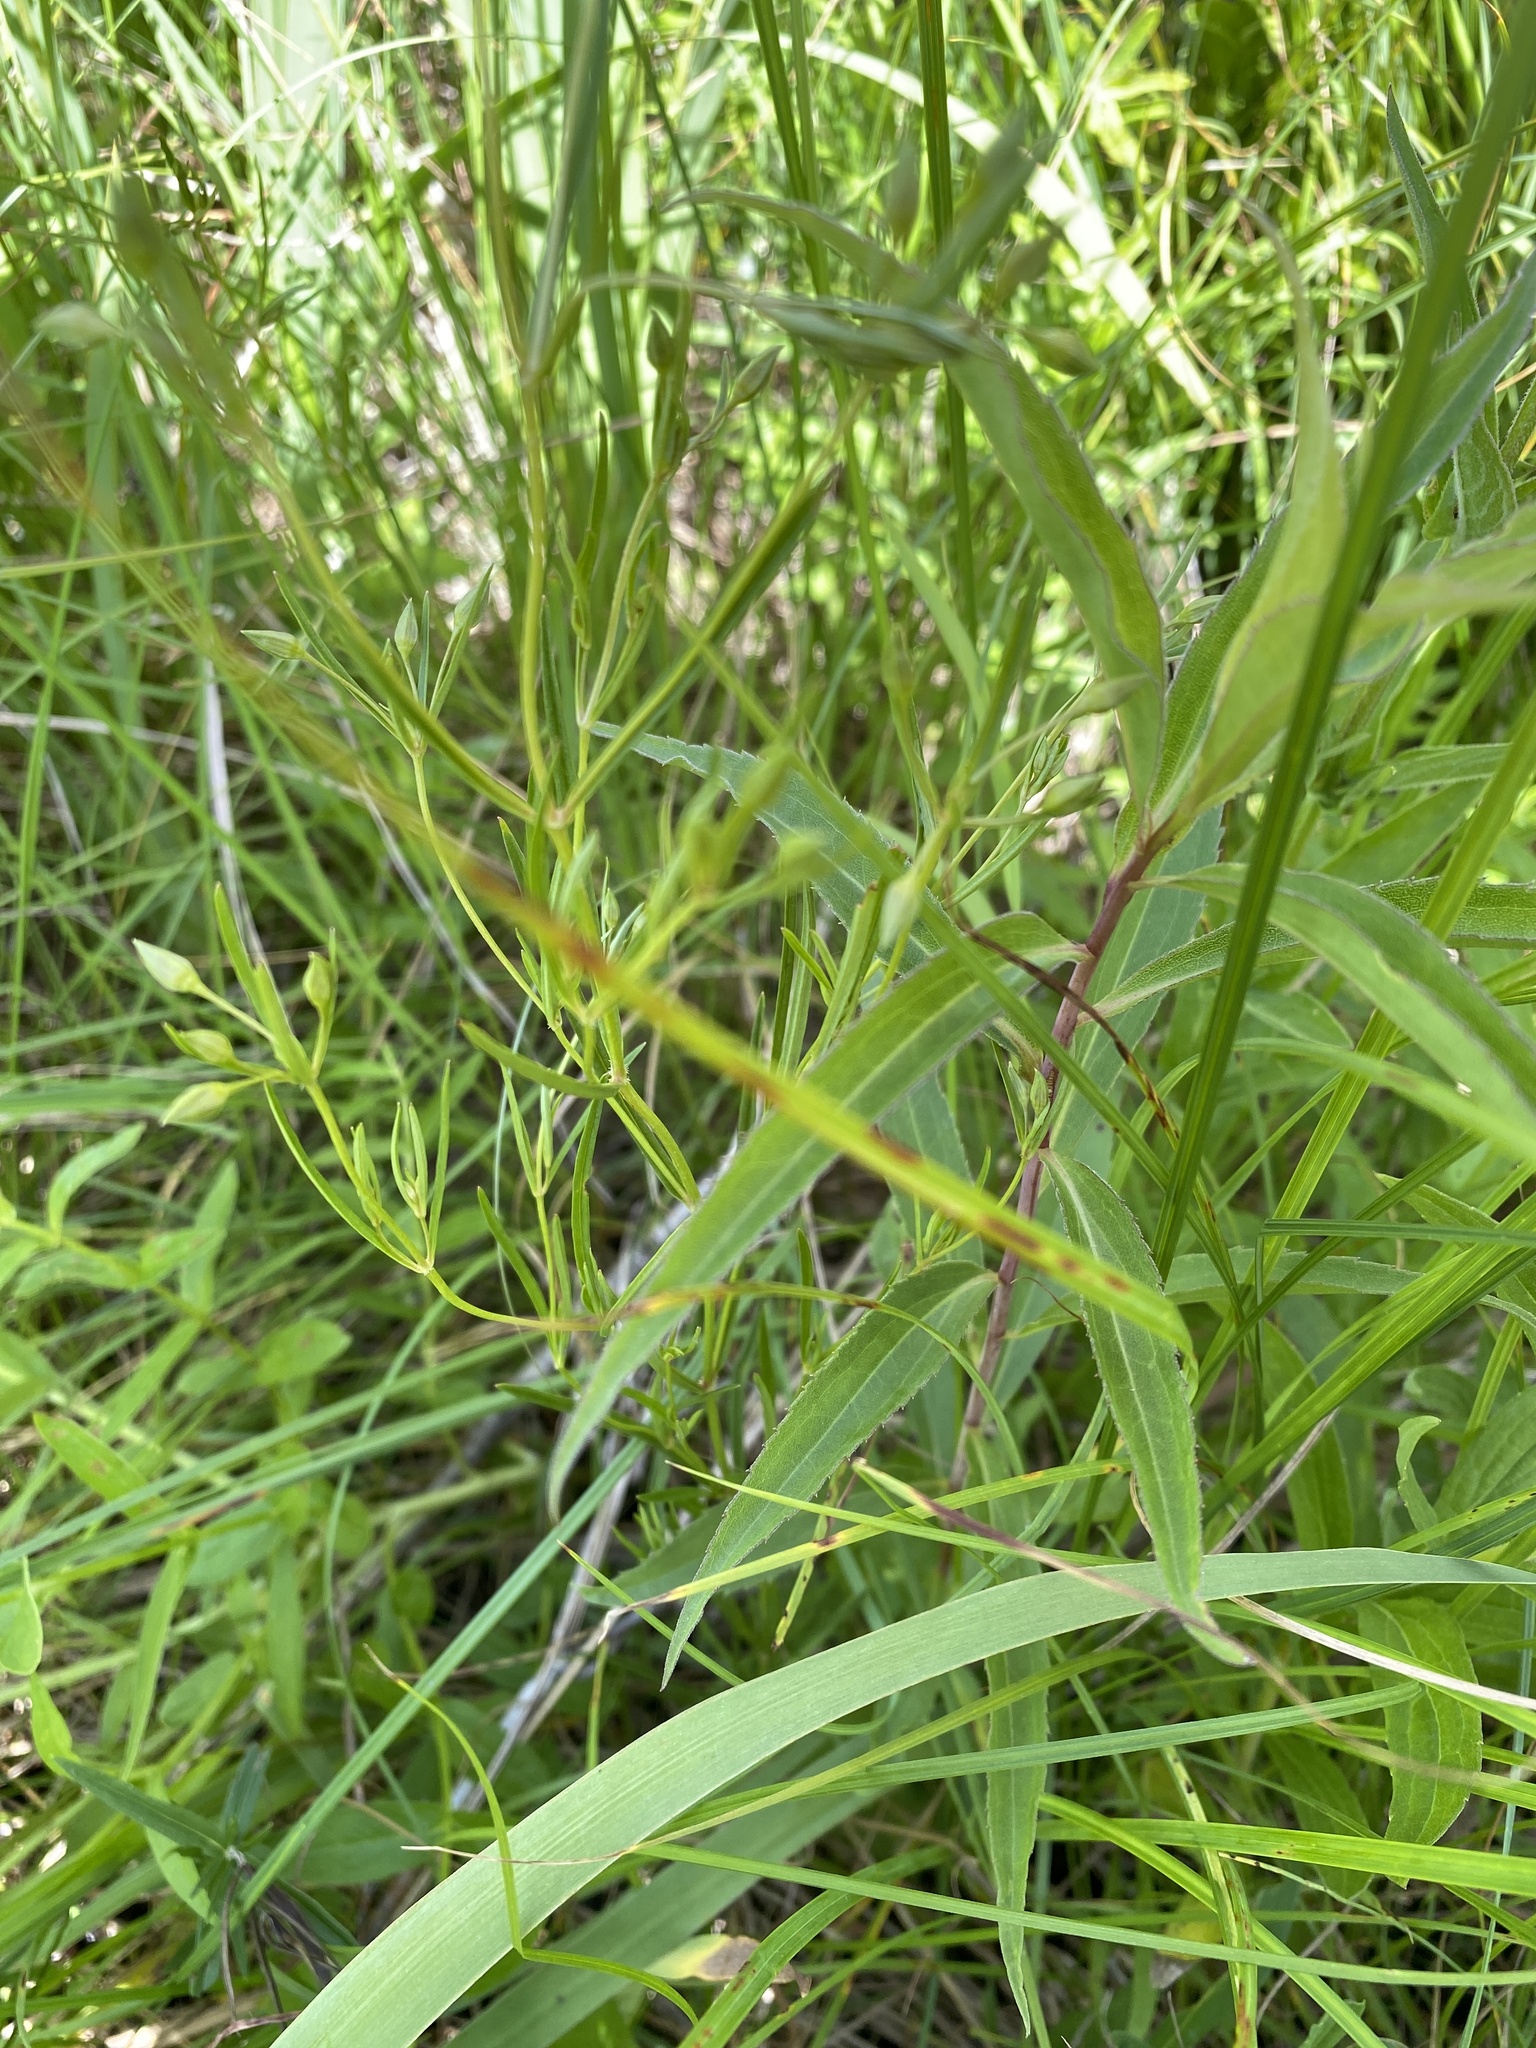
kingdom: Plantae
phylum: Tracheophyta
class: Magnoliopsida
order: Ericales
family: Primulaceae
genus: Lysimachia
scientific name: Lysimachia quadriflora
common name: Four-flowered loosestrife
